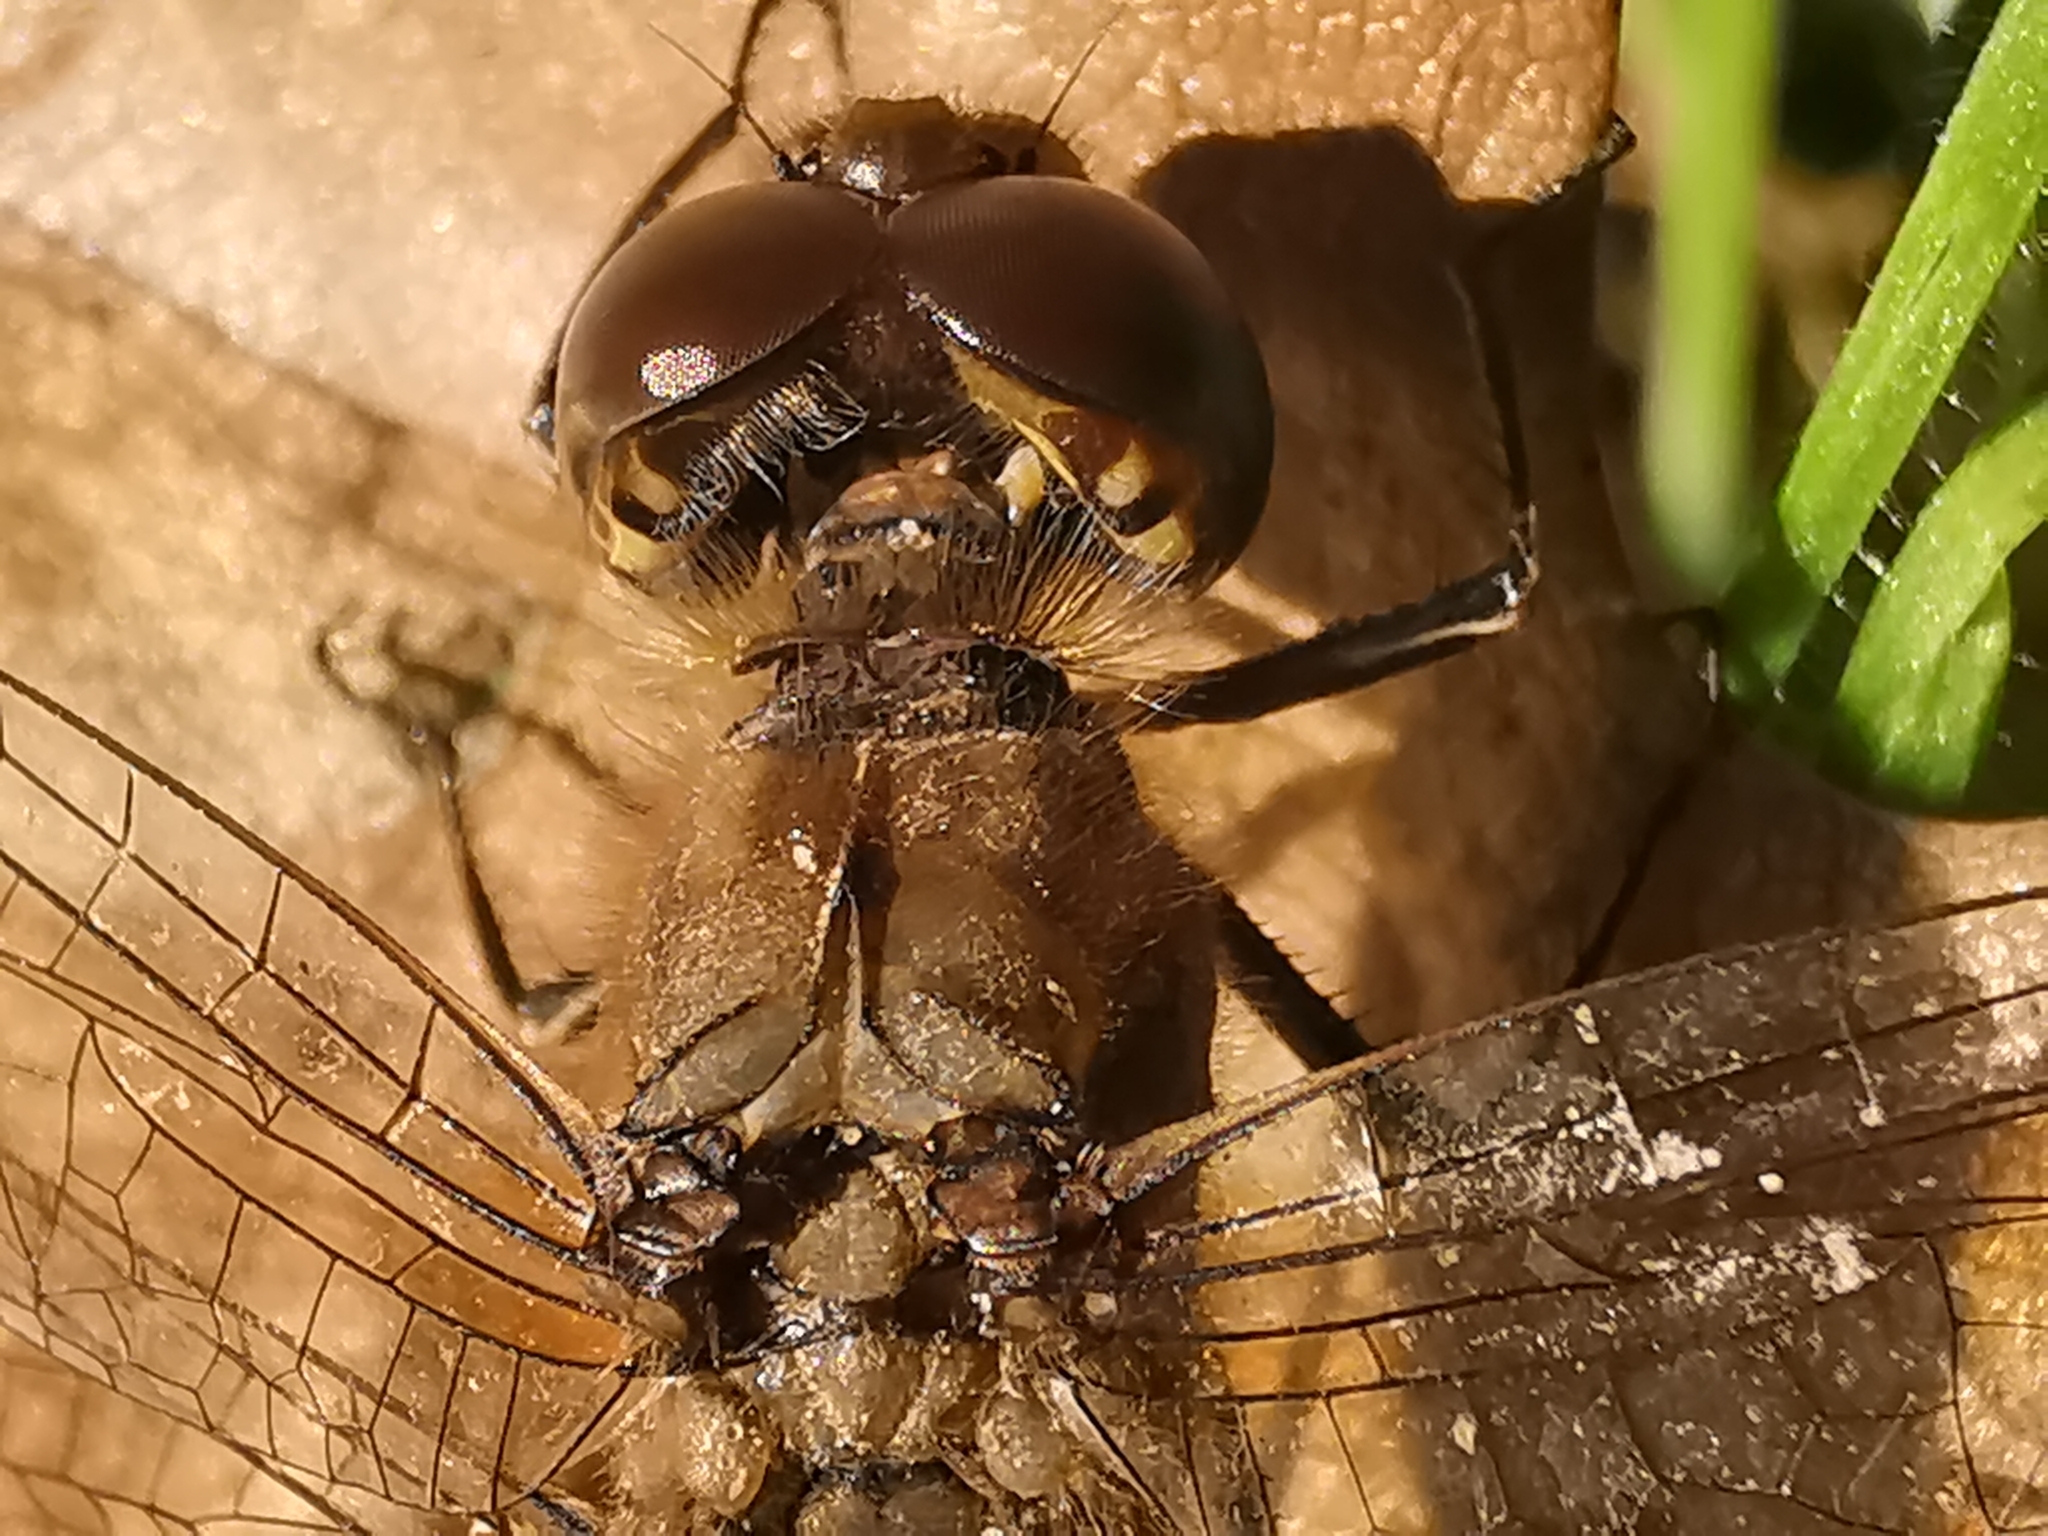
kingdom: Animalia
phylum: Arthropoda
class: Insecta
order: Odonata
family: Libellulidae
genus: Sympetrum
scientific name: Sympetrum striolatum
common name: Common darter
